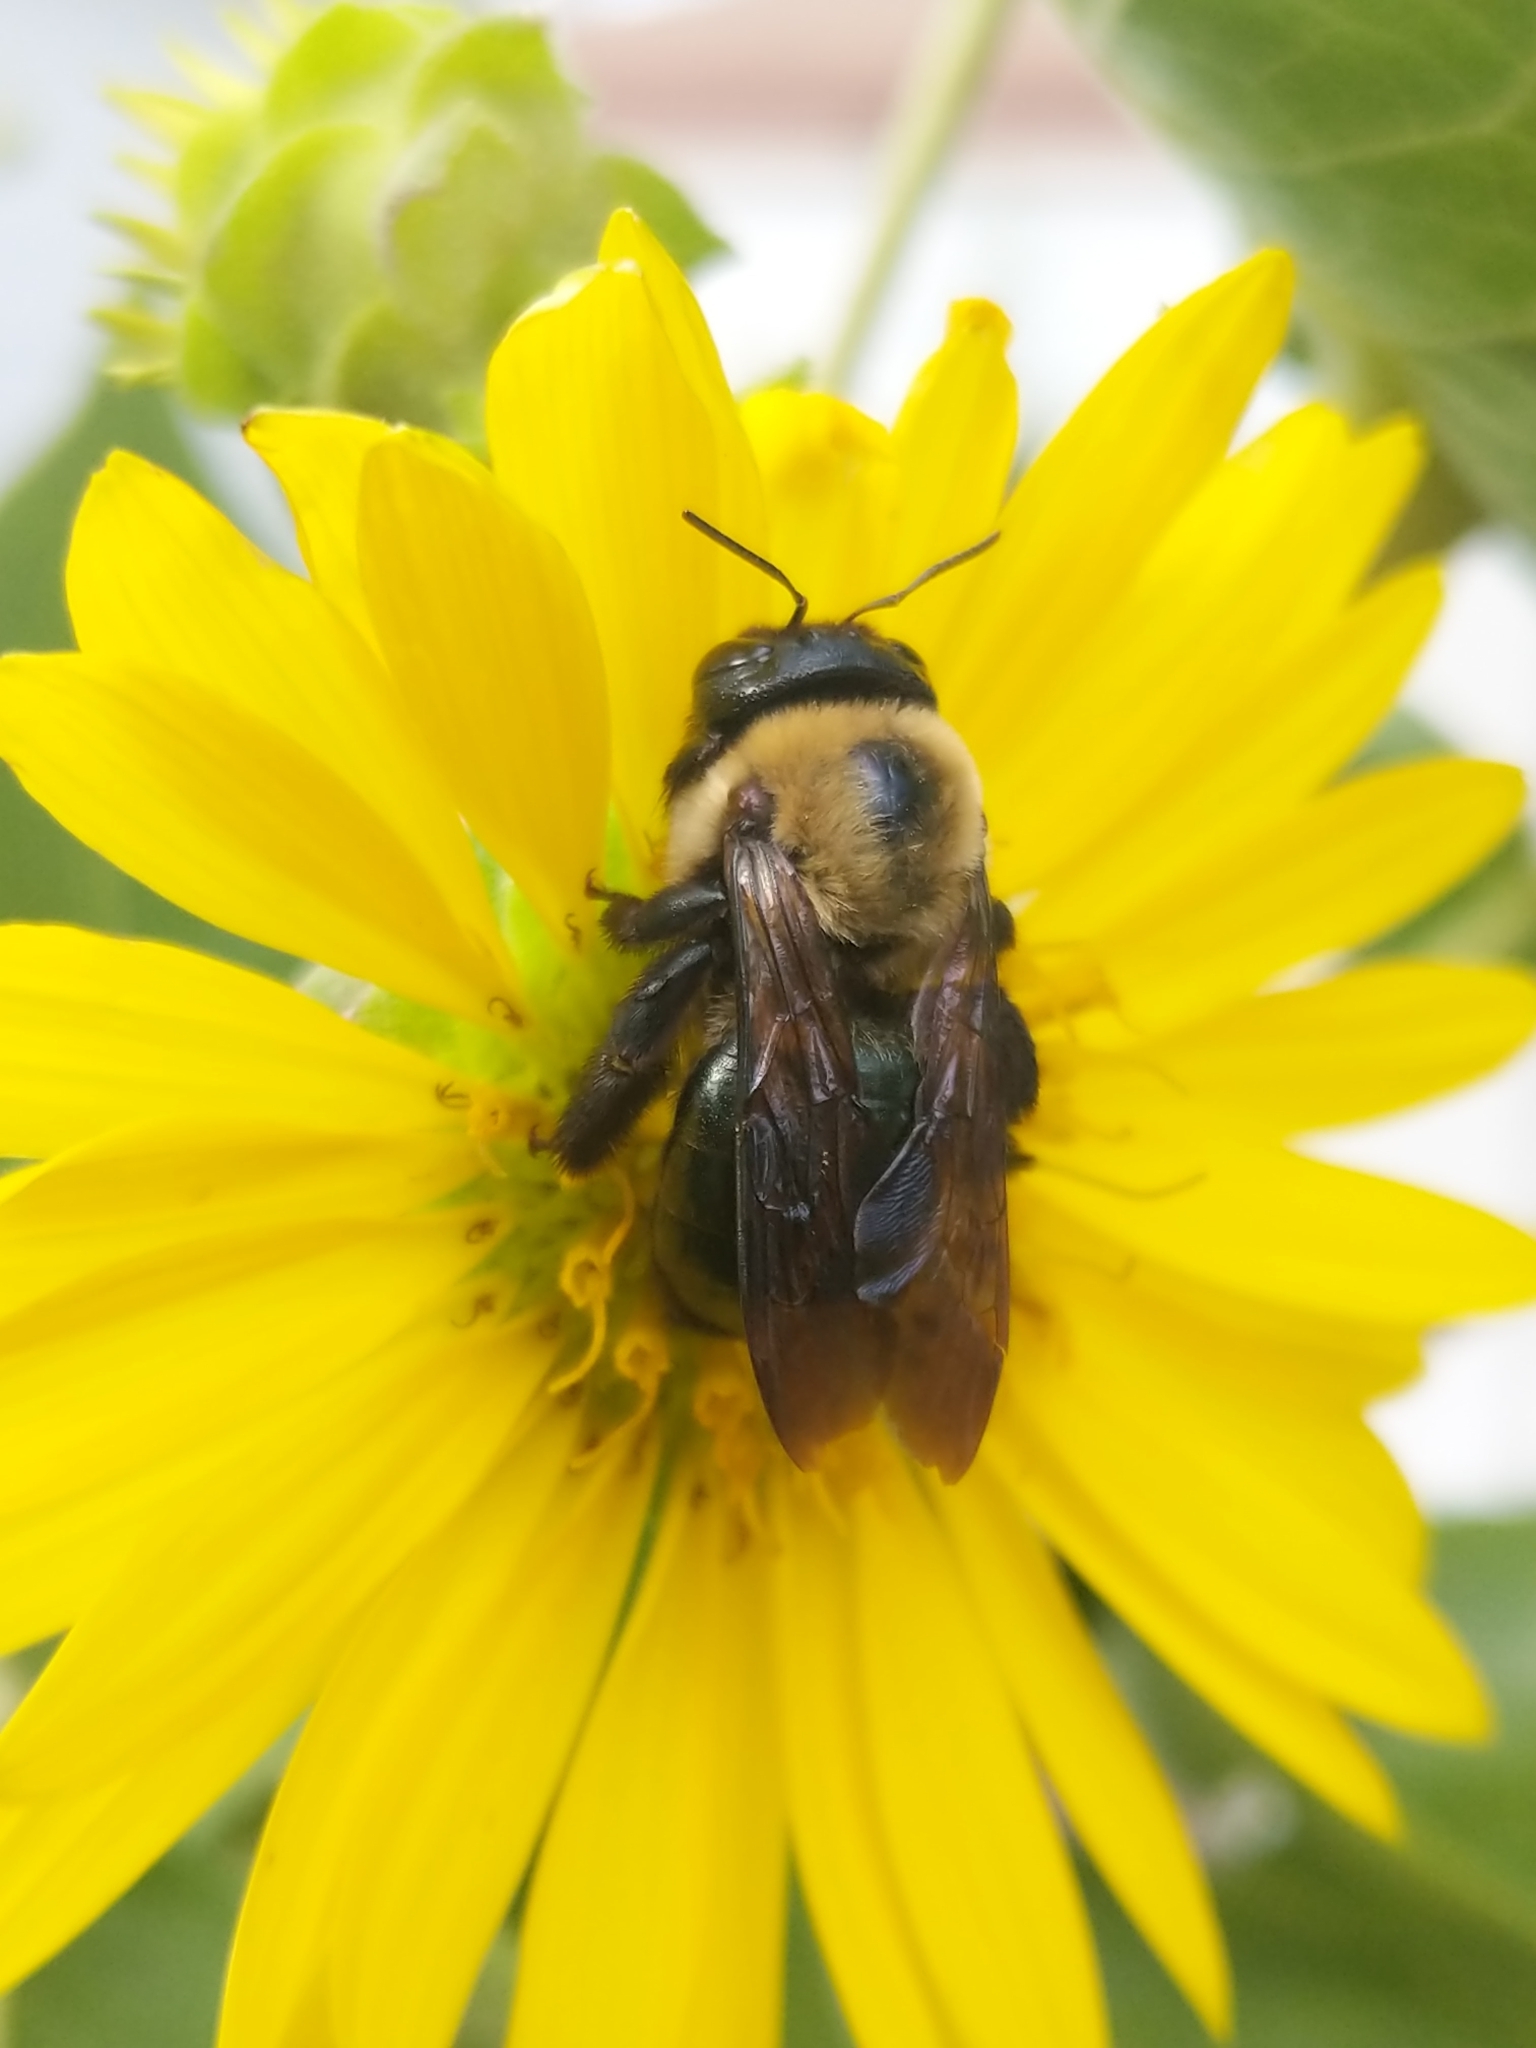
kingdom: Animalia
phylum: Arthropoda
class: Insecta
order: Hymenoptera
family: Apidae
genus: Xylocopa
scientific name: Xylocopa virginica
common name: Carpenter bee
